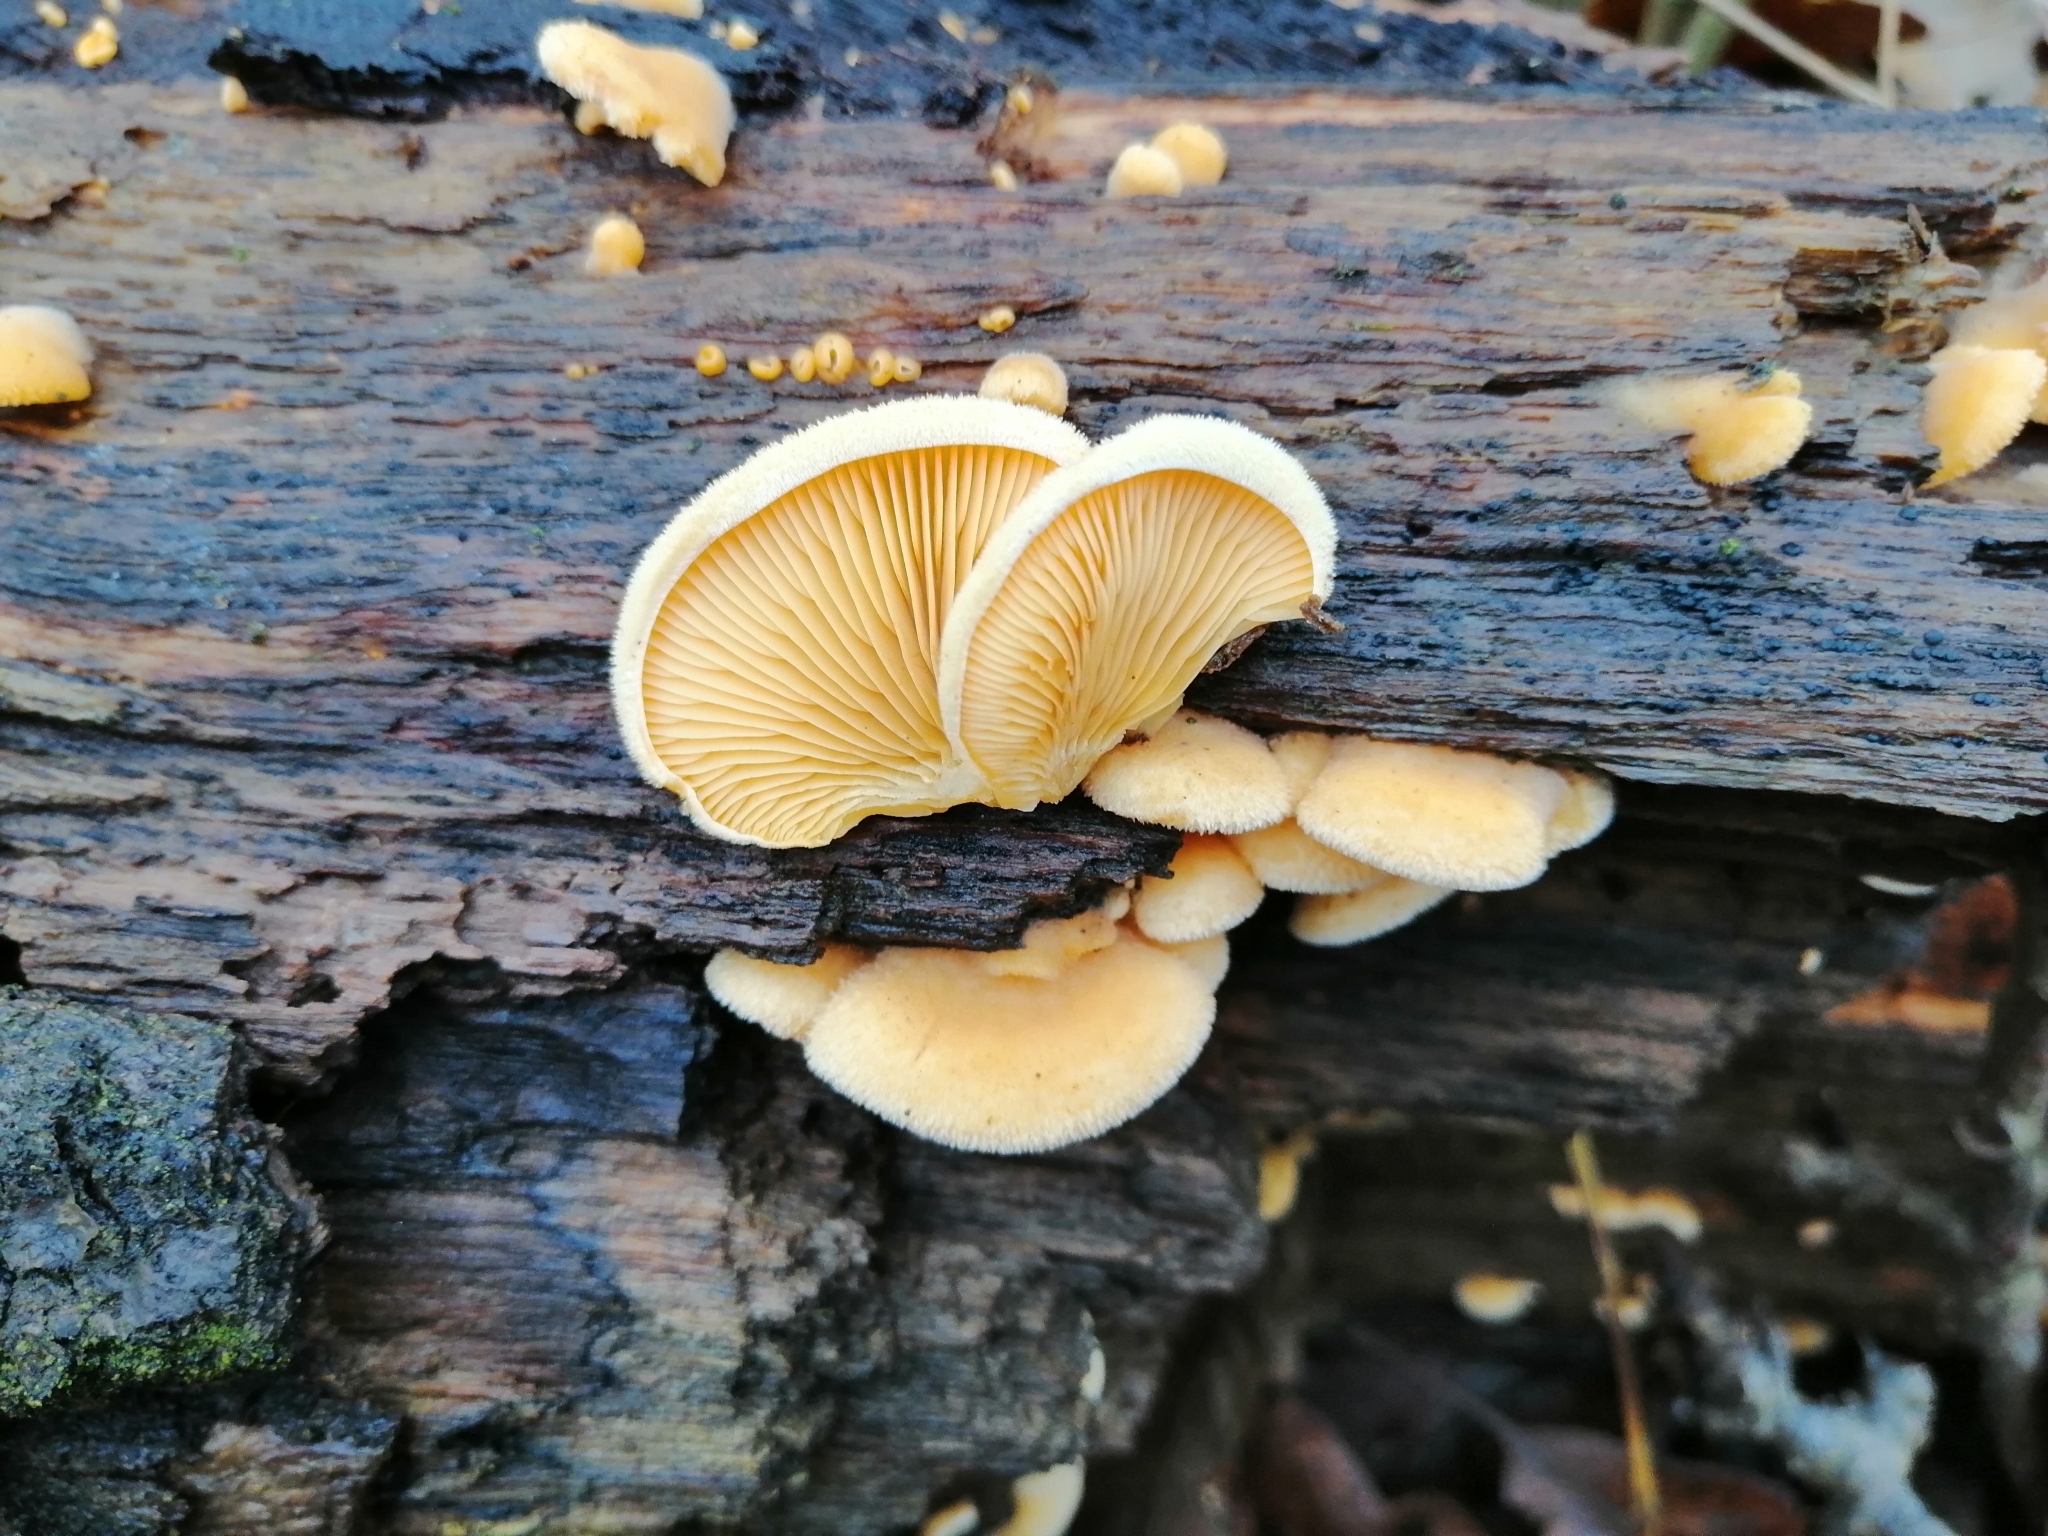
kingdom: Fungi
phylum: Basidiomycota
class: Agaricomycetes
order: Agaricales
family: Phyllotopsidaceae
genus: Phyllotopsis
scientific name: Phyllotopsis nidulans
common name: Orange mock oyster
